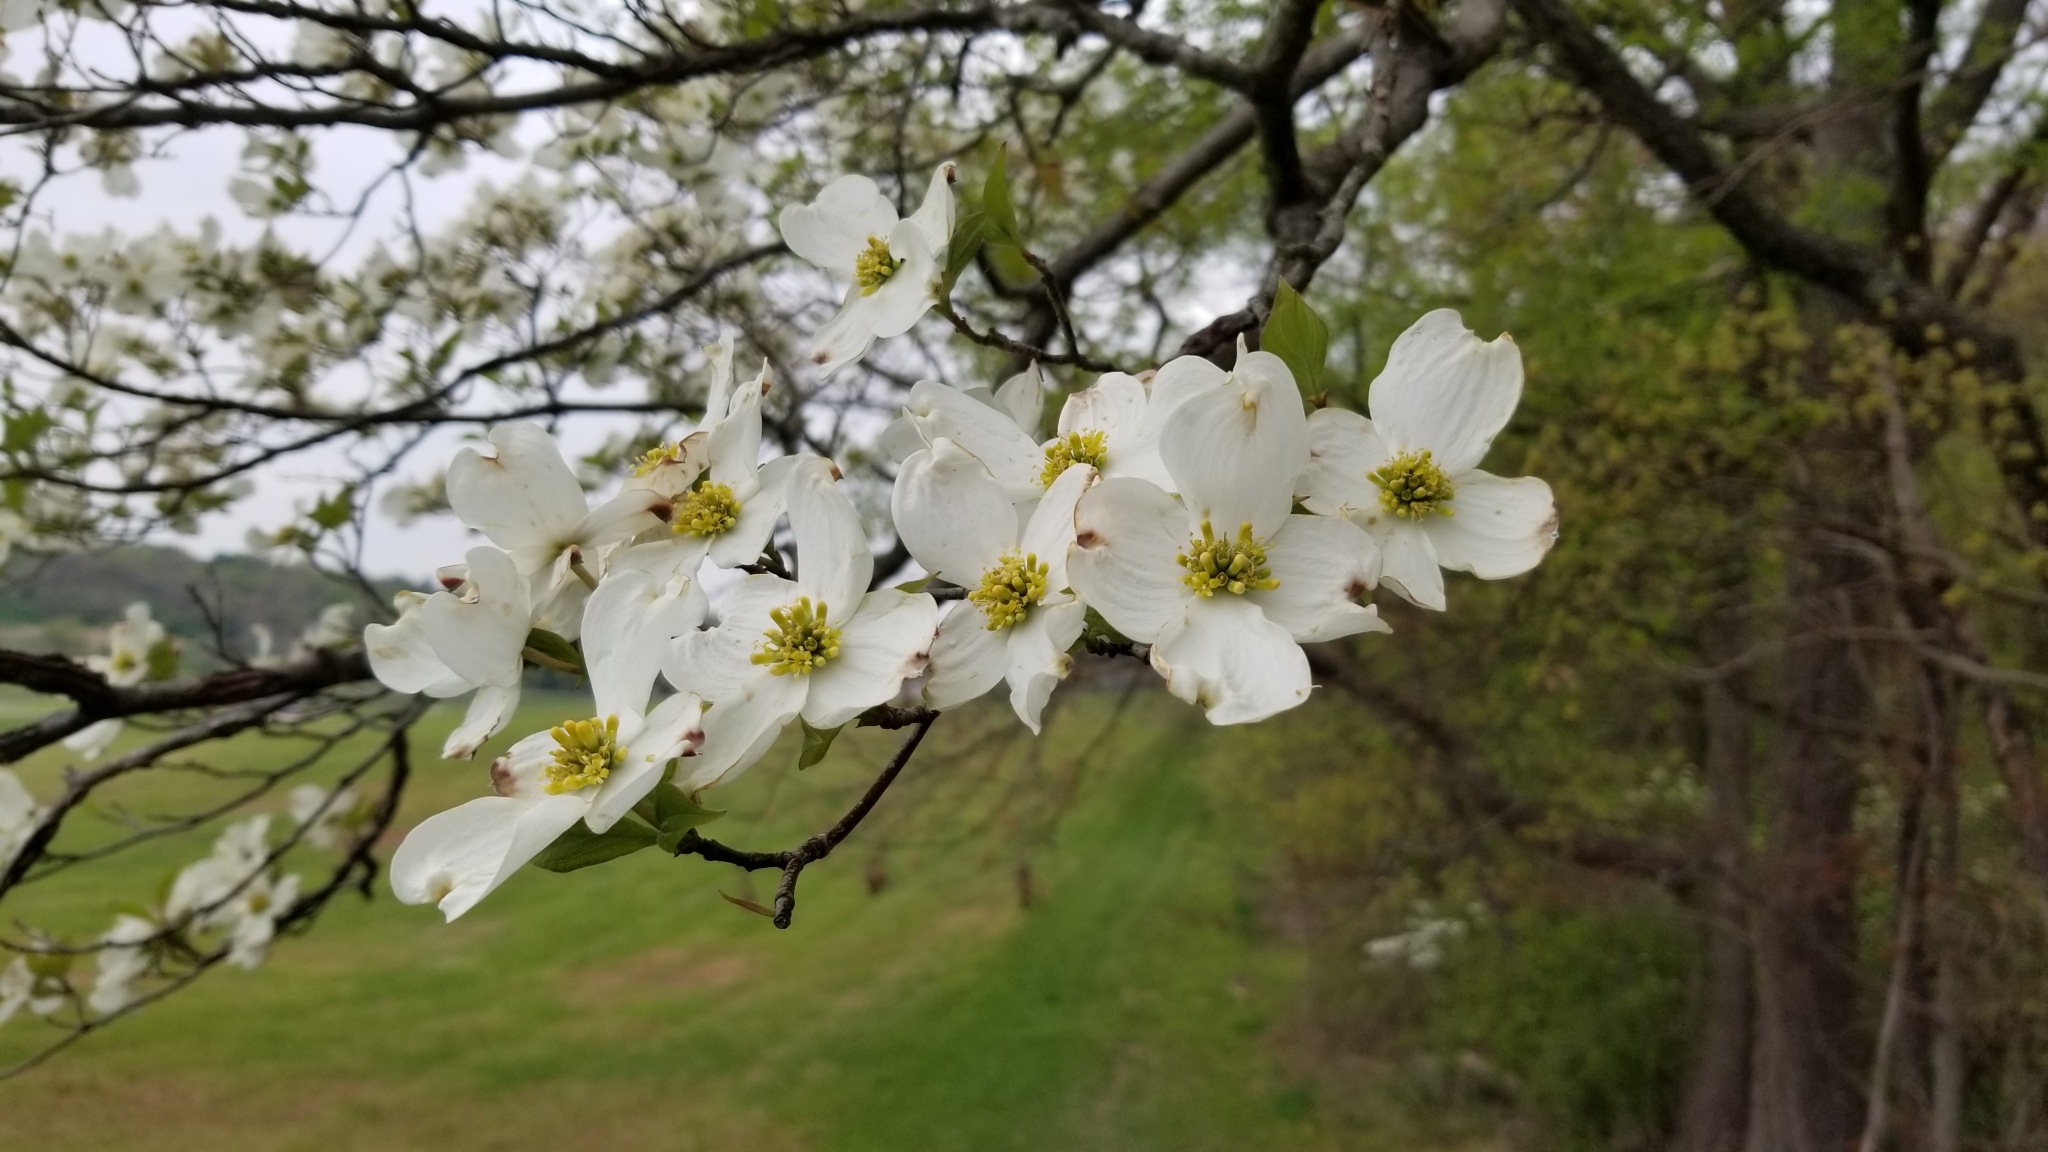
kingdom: Plantae
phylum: Tracheophyta
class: Magnoliopsida
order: Cornales
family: Cornaceae
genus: Cornus
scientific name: Cornus florida
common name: Flowering dogwood
